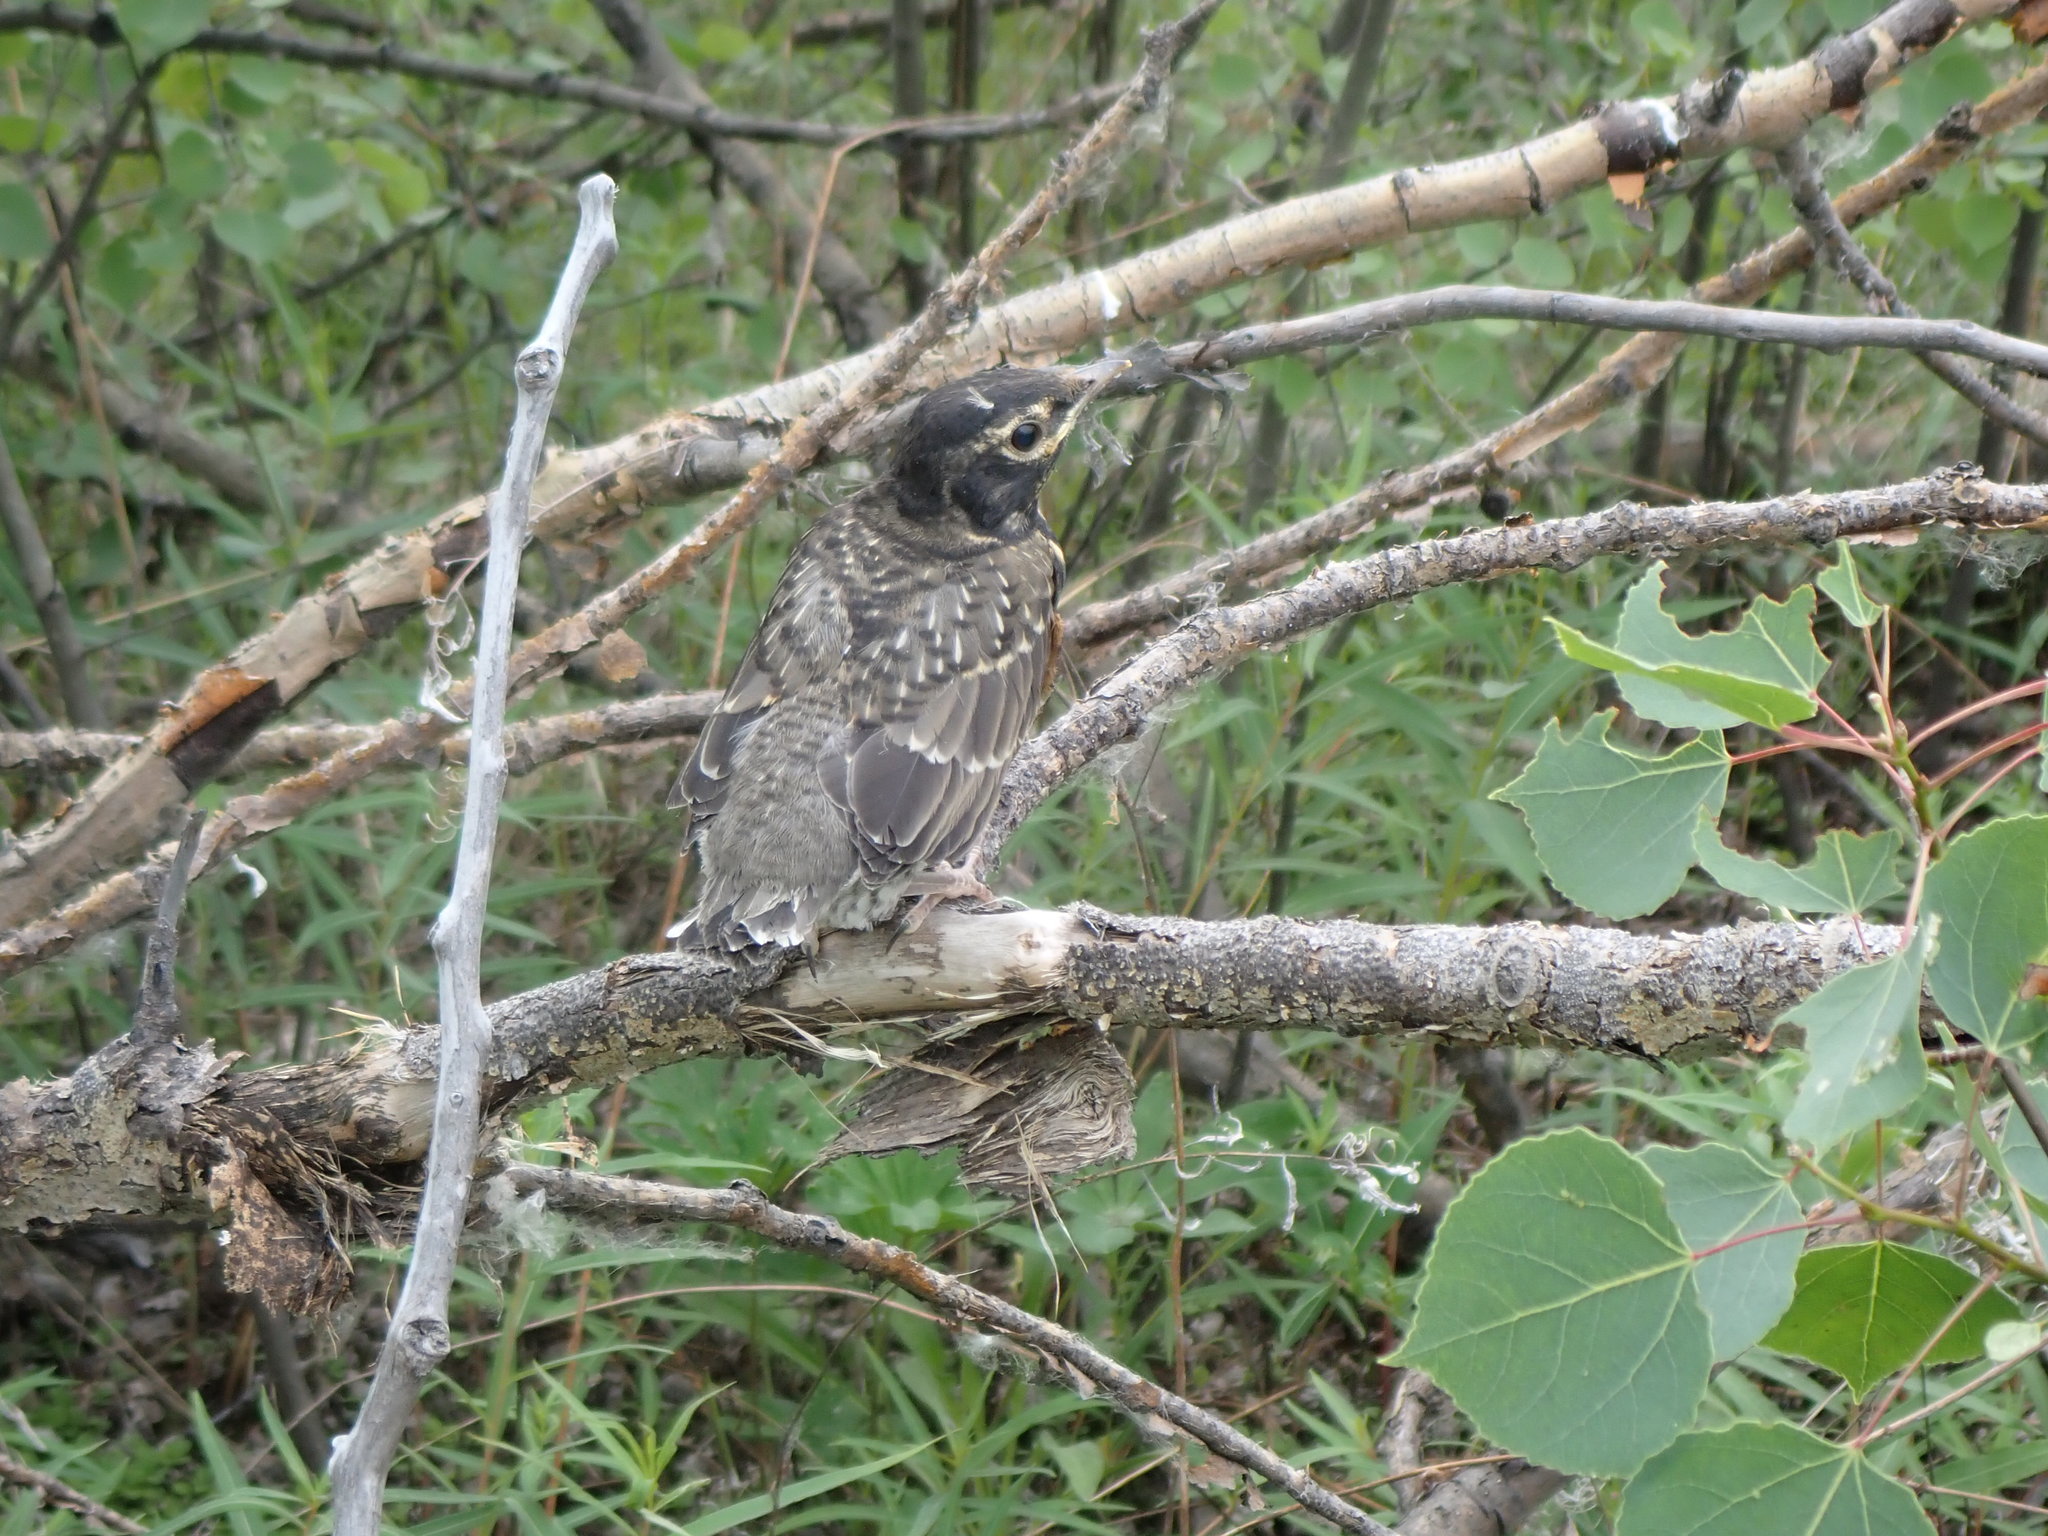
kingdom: Animalia
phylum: Chordata
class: Aves
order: Passeriformes
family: Turdidae
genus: Turdus
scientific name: Turdus migratorius
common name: American robin
